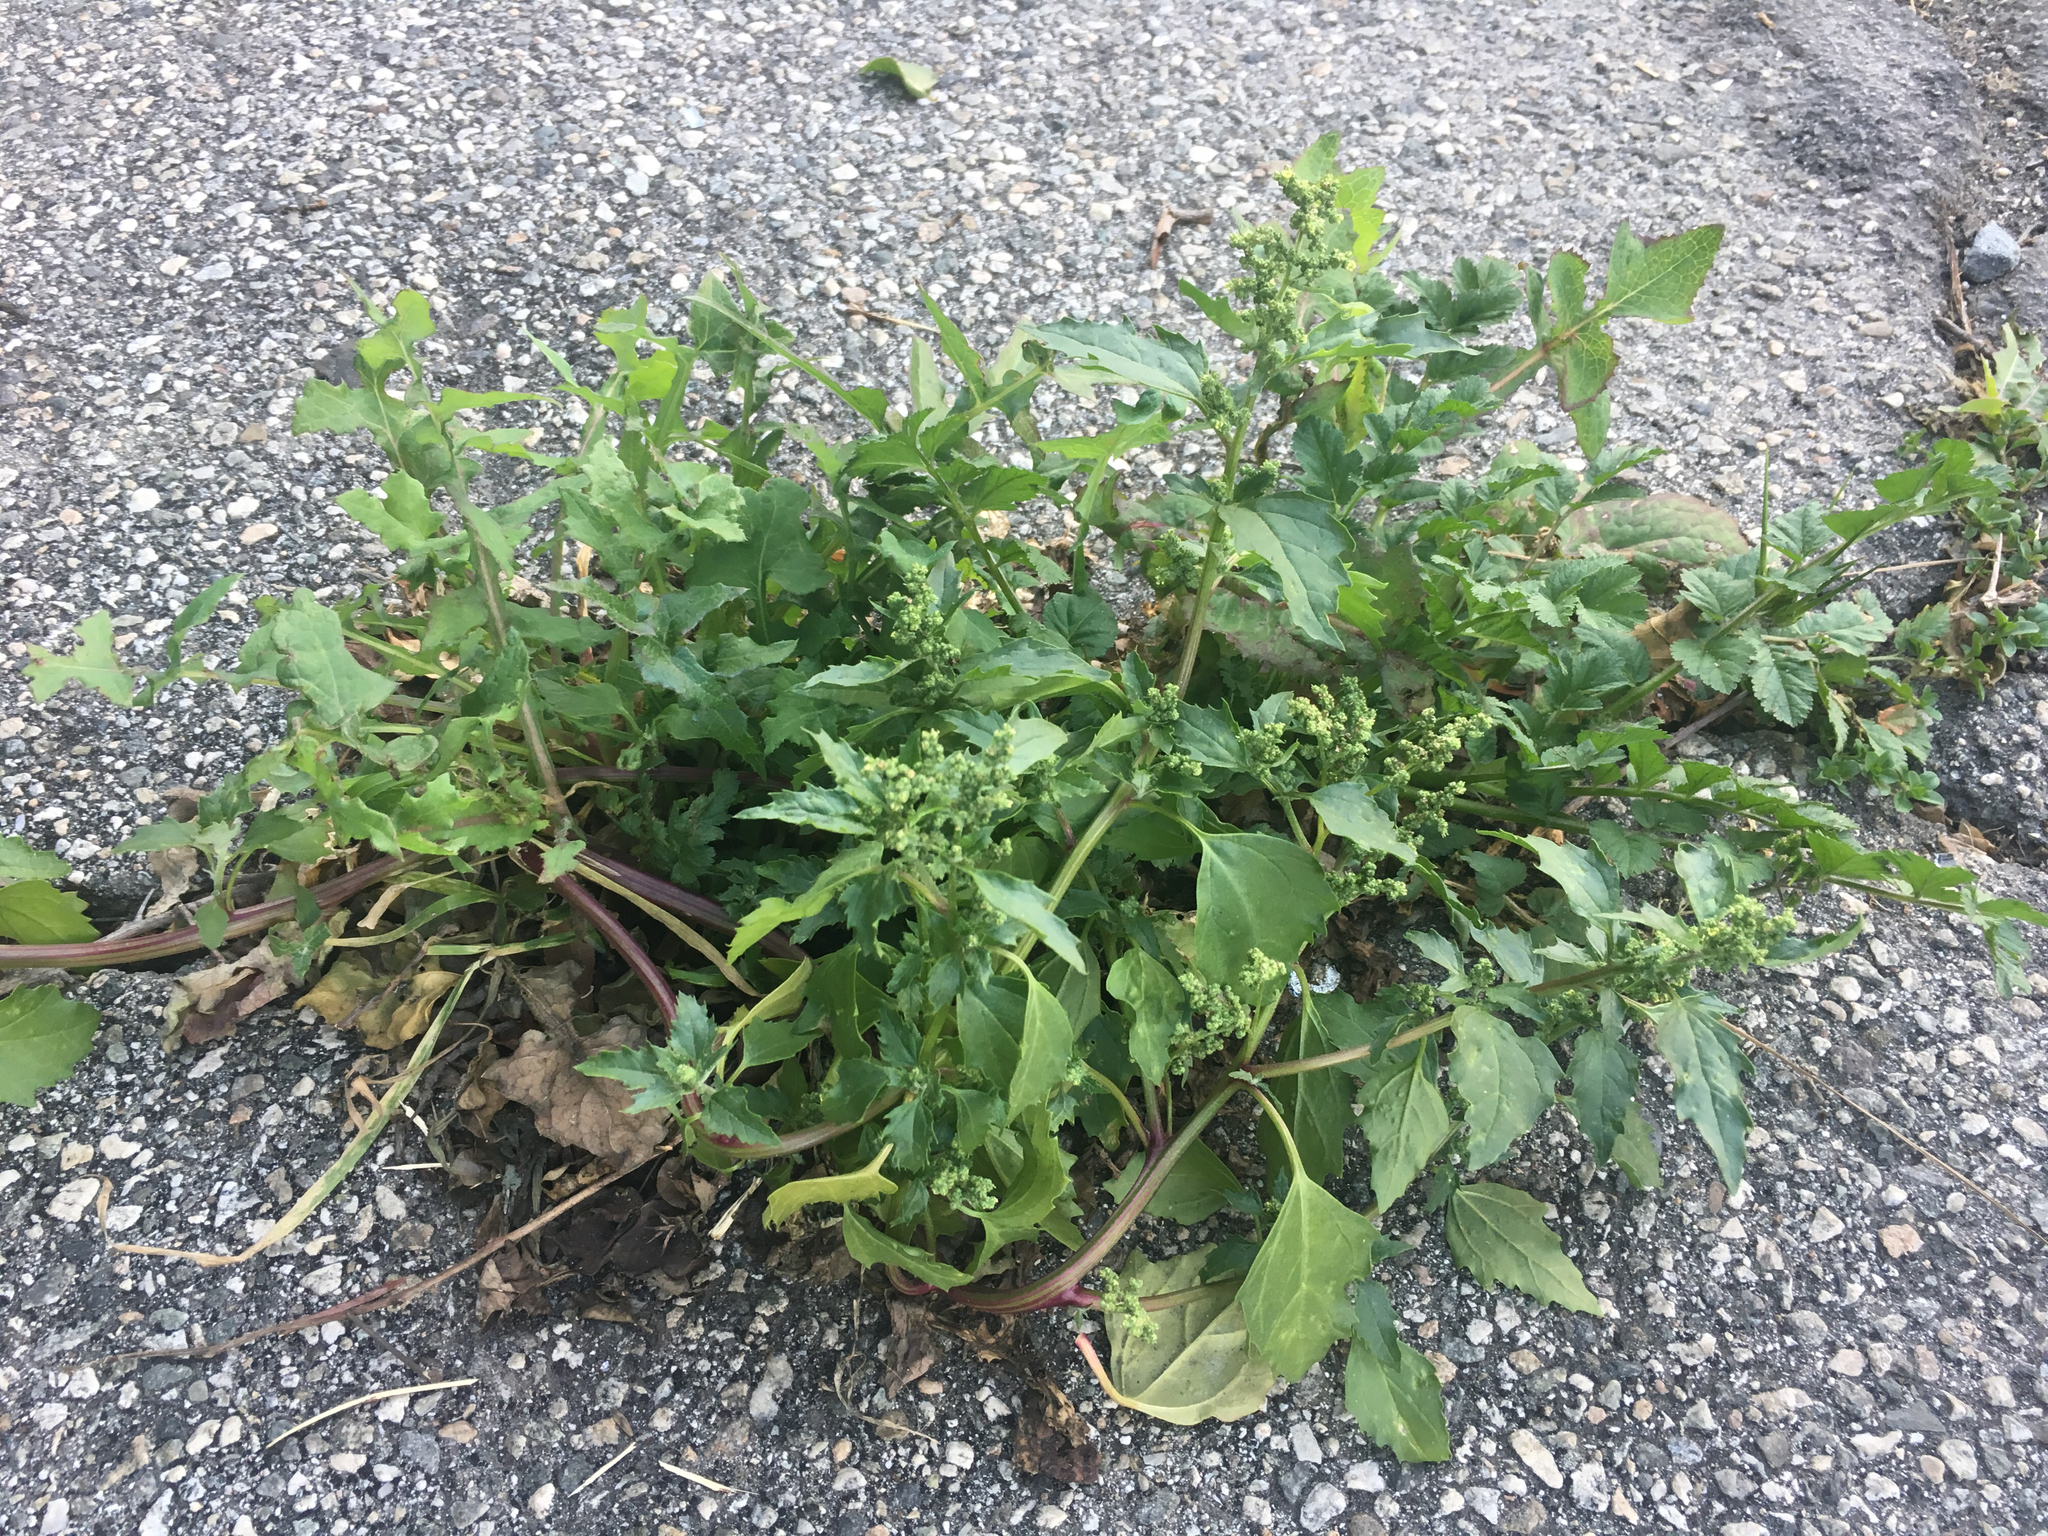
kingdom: Plantae
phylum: Tracheophyta
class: Magnoliopsida
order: Caryophyllales
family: Amaranthaceae
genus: Chenopodiastrum
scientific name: Chenopodiastrum murale
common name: Sowbane
